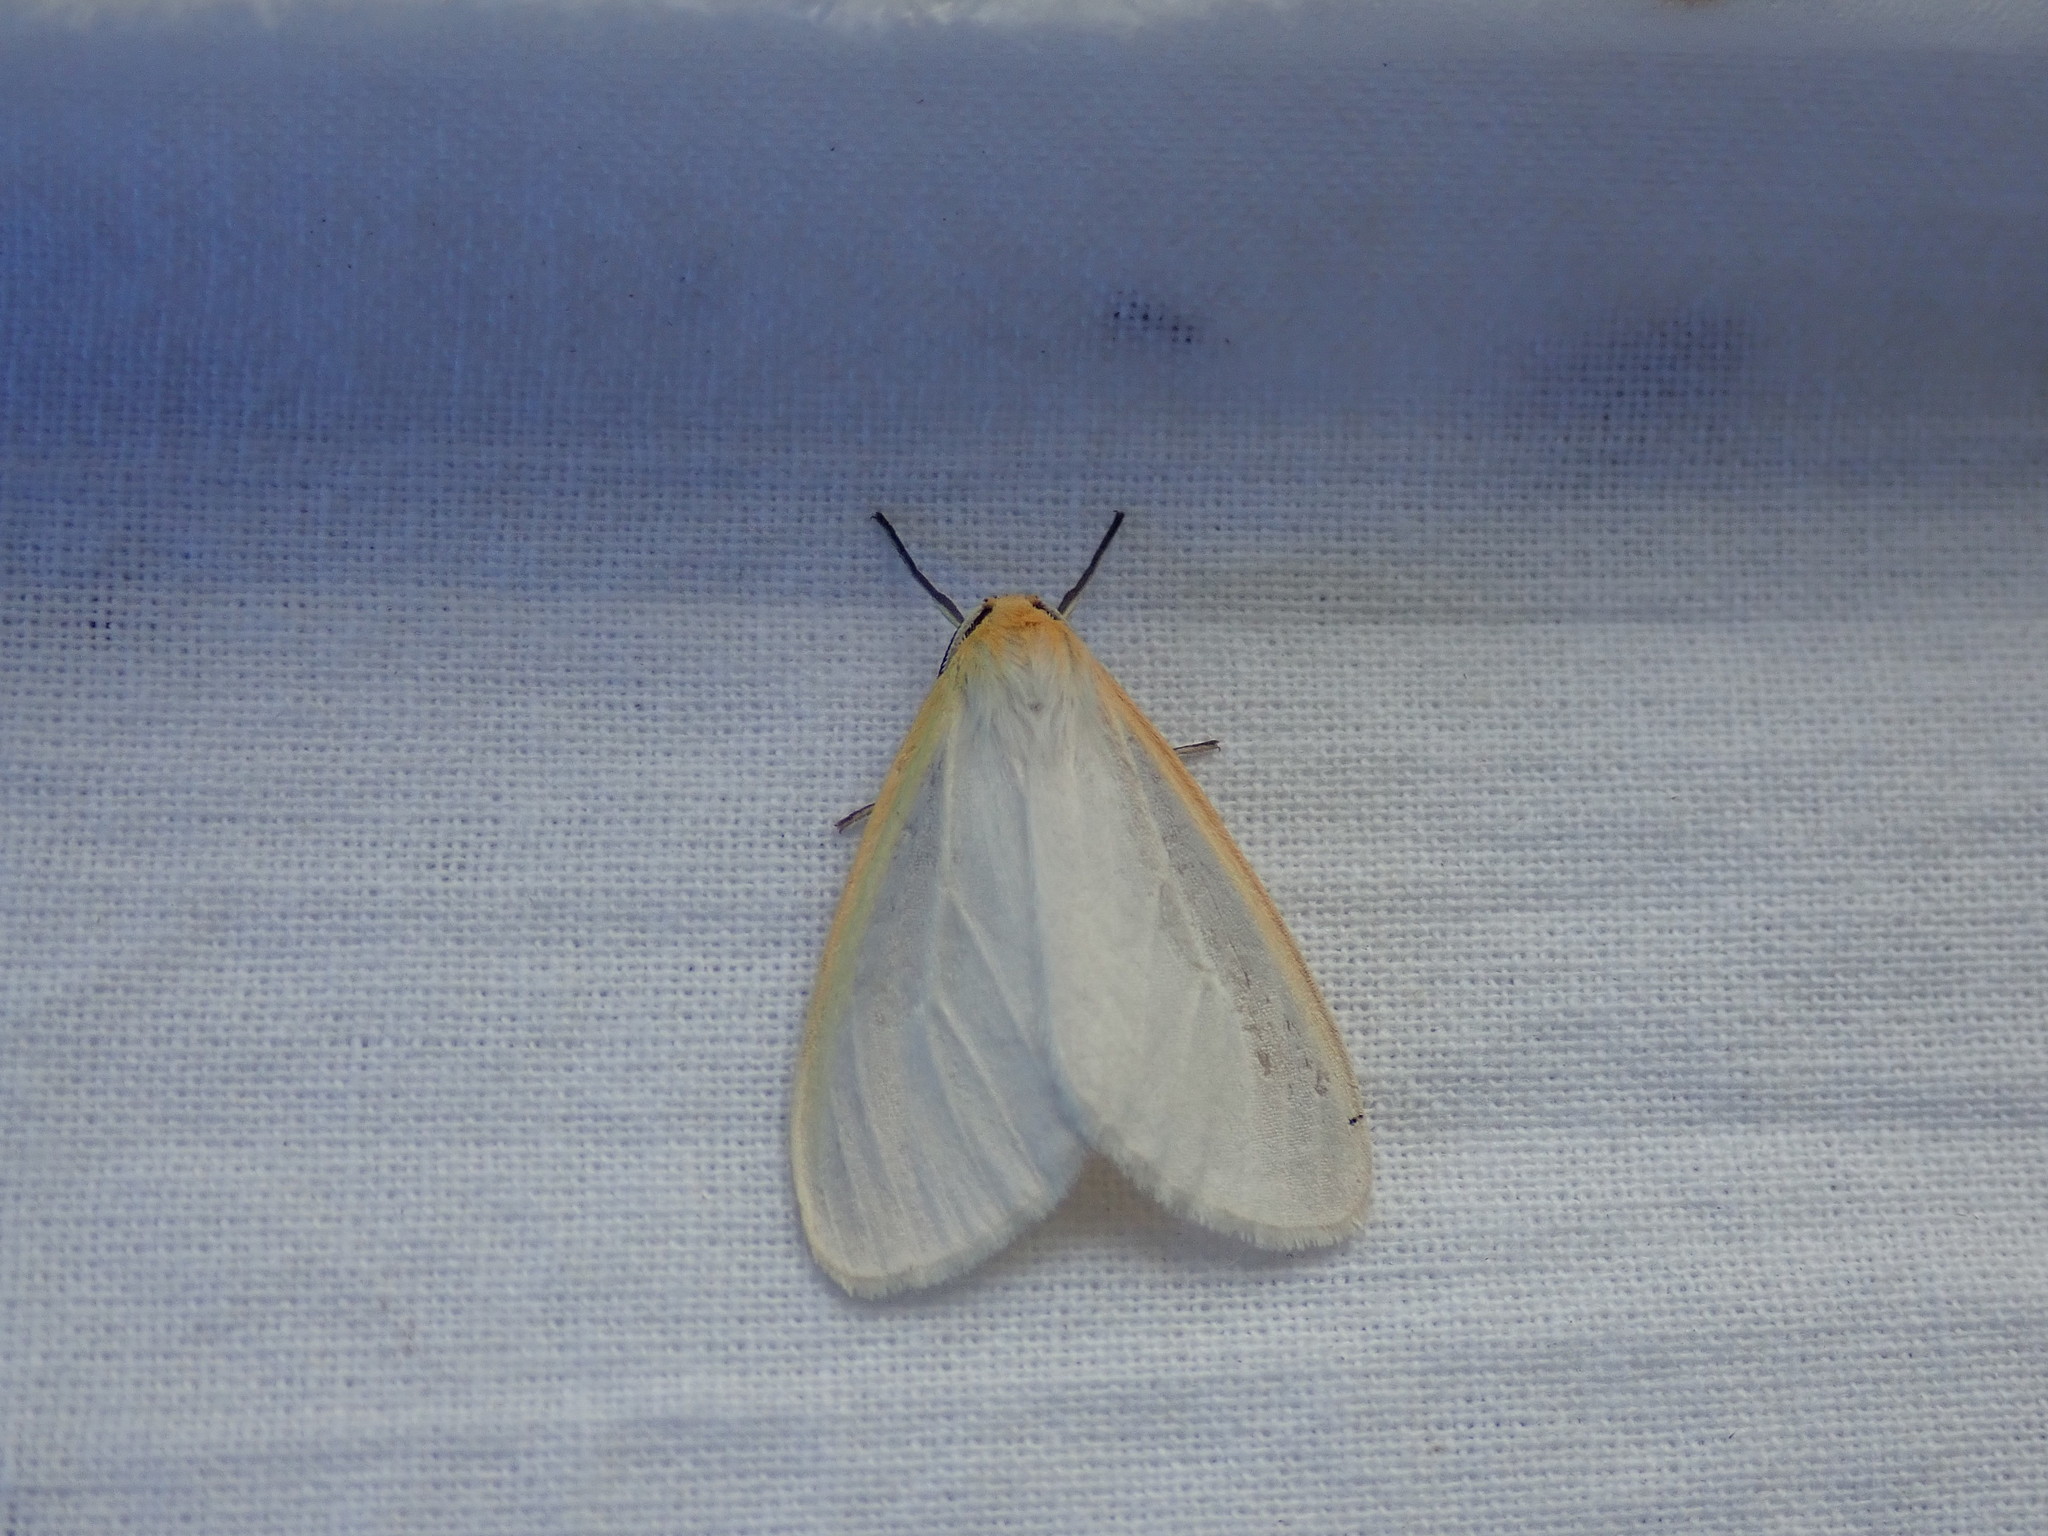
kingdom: Animalia
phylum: Arthropoda
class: Insecta
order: Lepidoptera
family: Erebidae
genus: Cycnia
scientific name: Cycnia tenera
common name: Delicate cycnia moth
